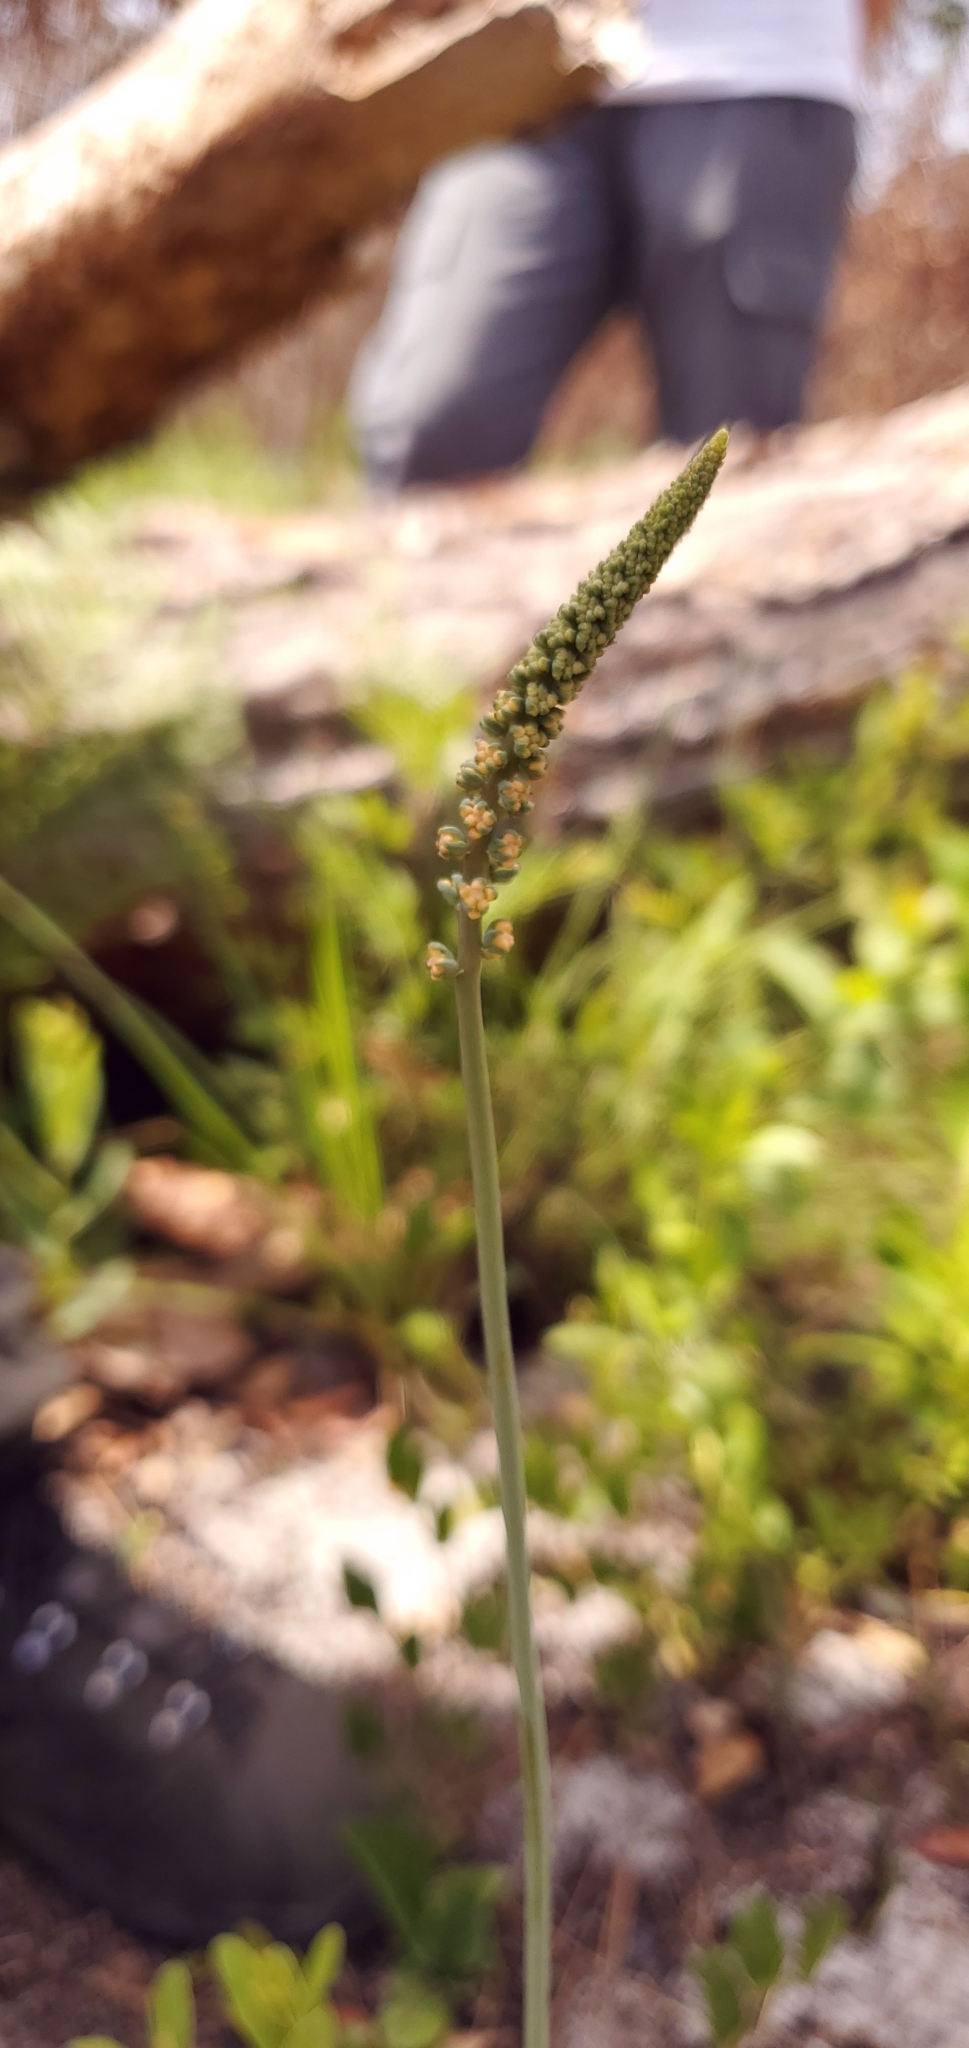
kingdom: Plantae
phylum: Tracheophyta
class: Liliopsida
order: Liliales
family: Melanthiaceae
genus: Schoenocaulon
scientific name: Schoenocaulon dubium
